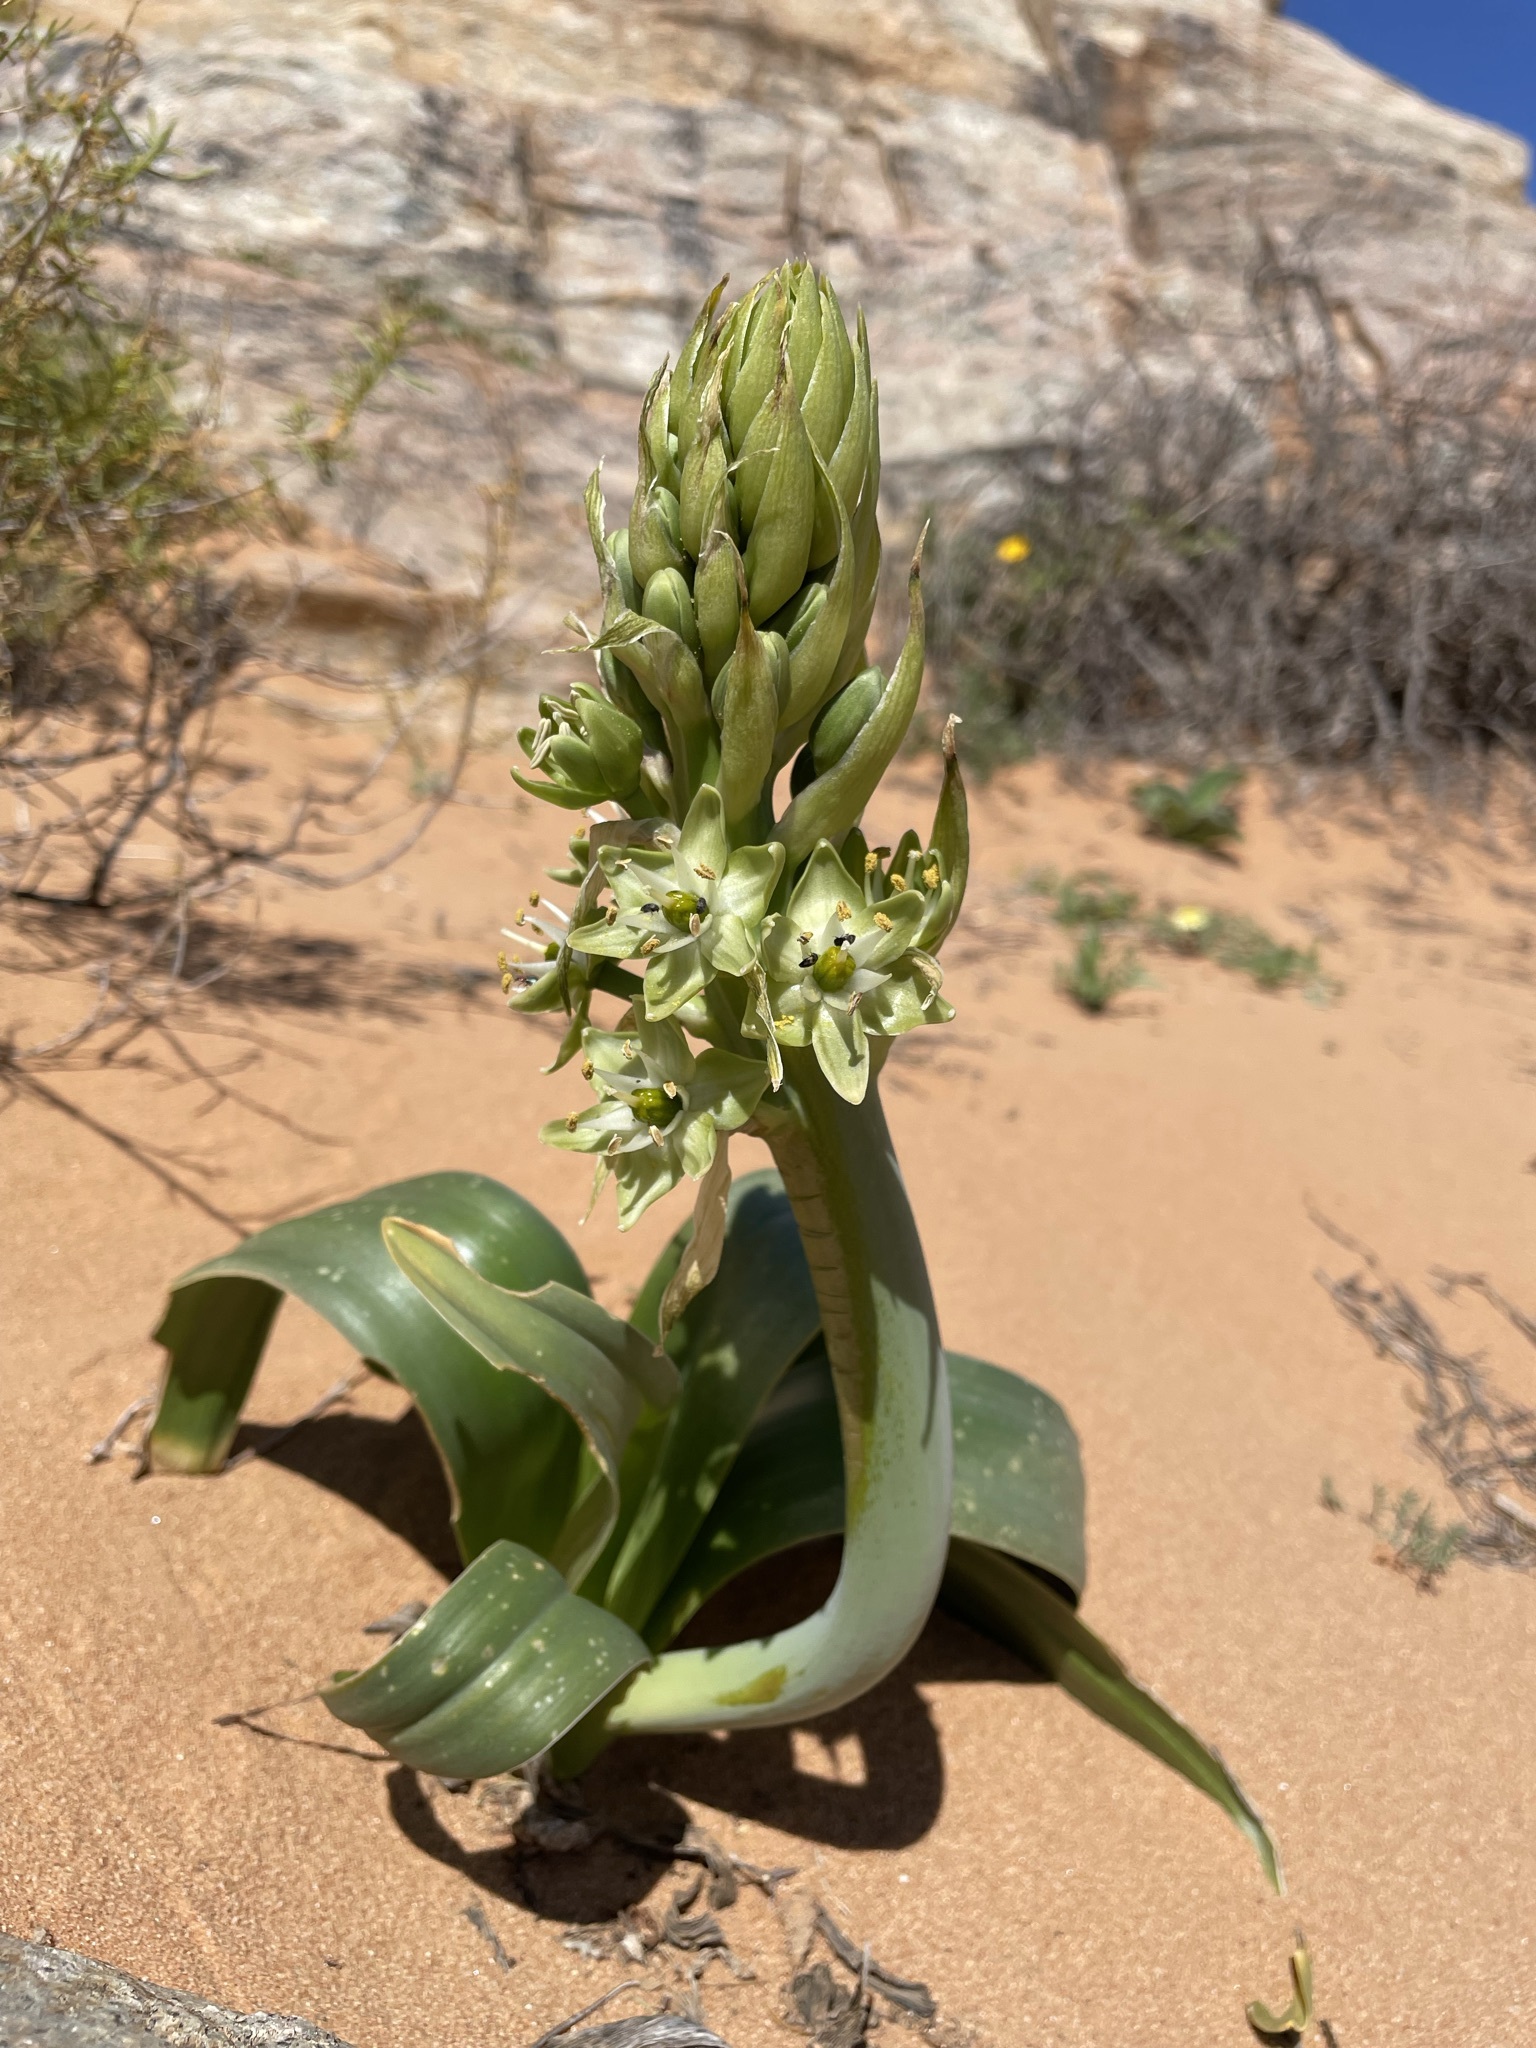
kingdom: Plantae
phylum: Tracheophyta
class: Liliopsida
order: Asparagales
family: Asparagaceae
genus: Ornithogalum
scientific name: Ornithogalum xanthochlorum
